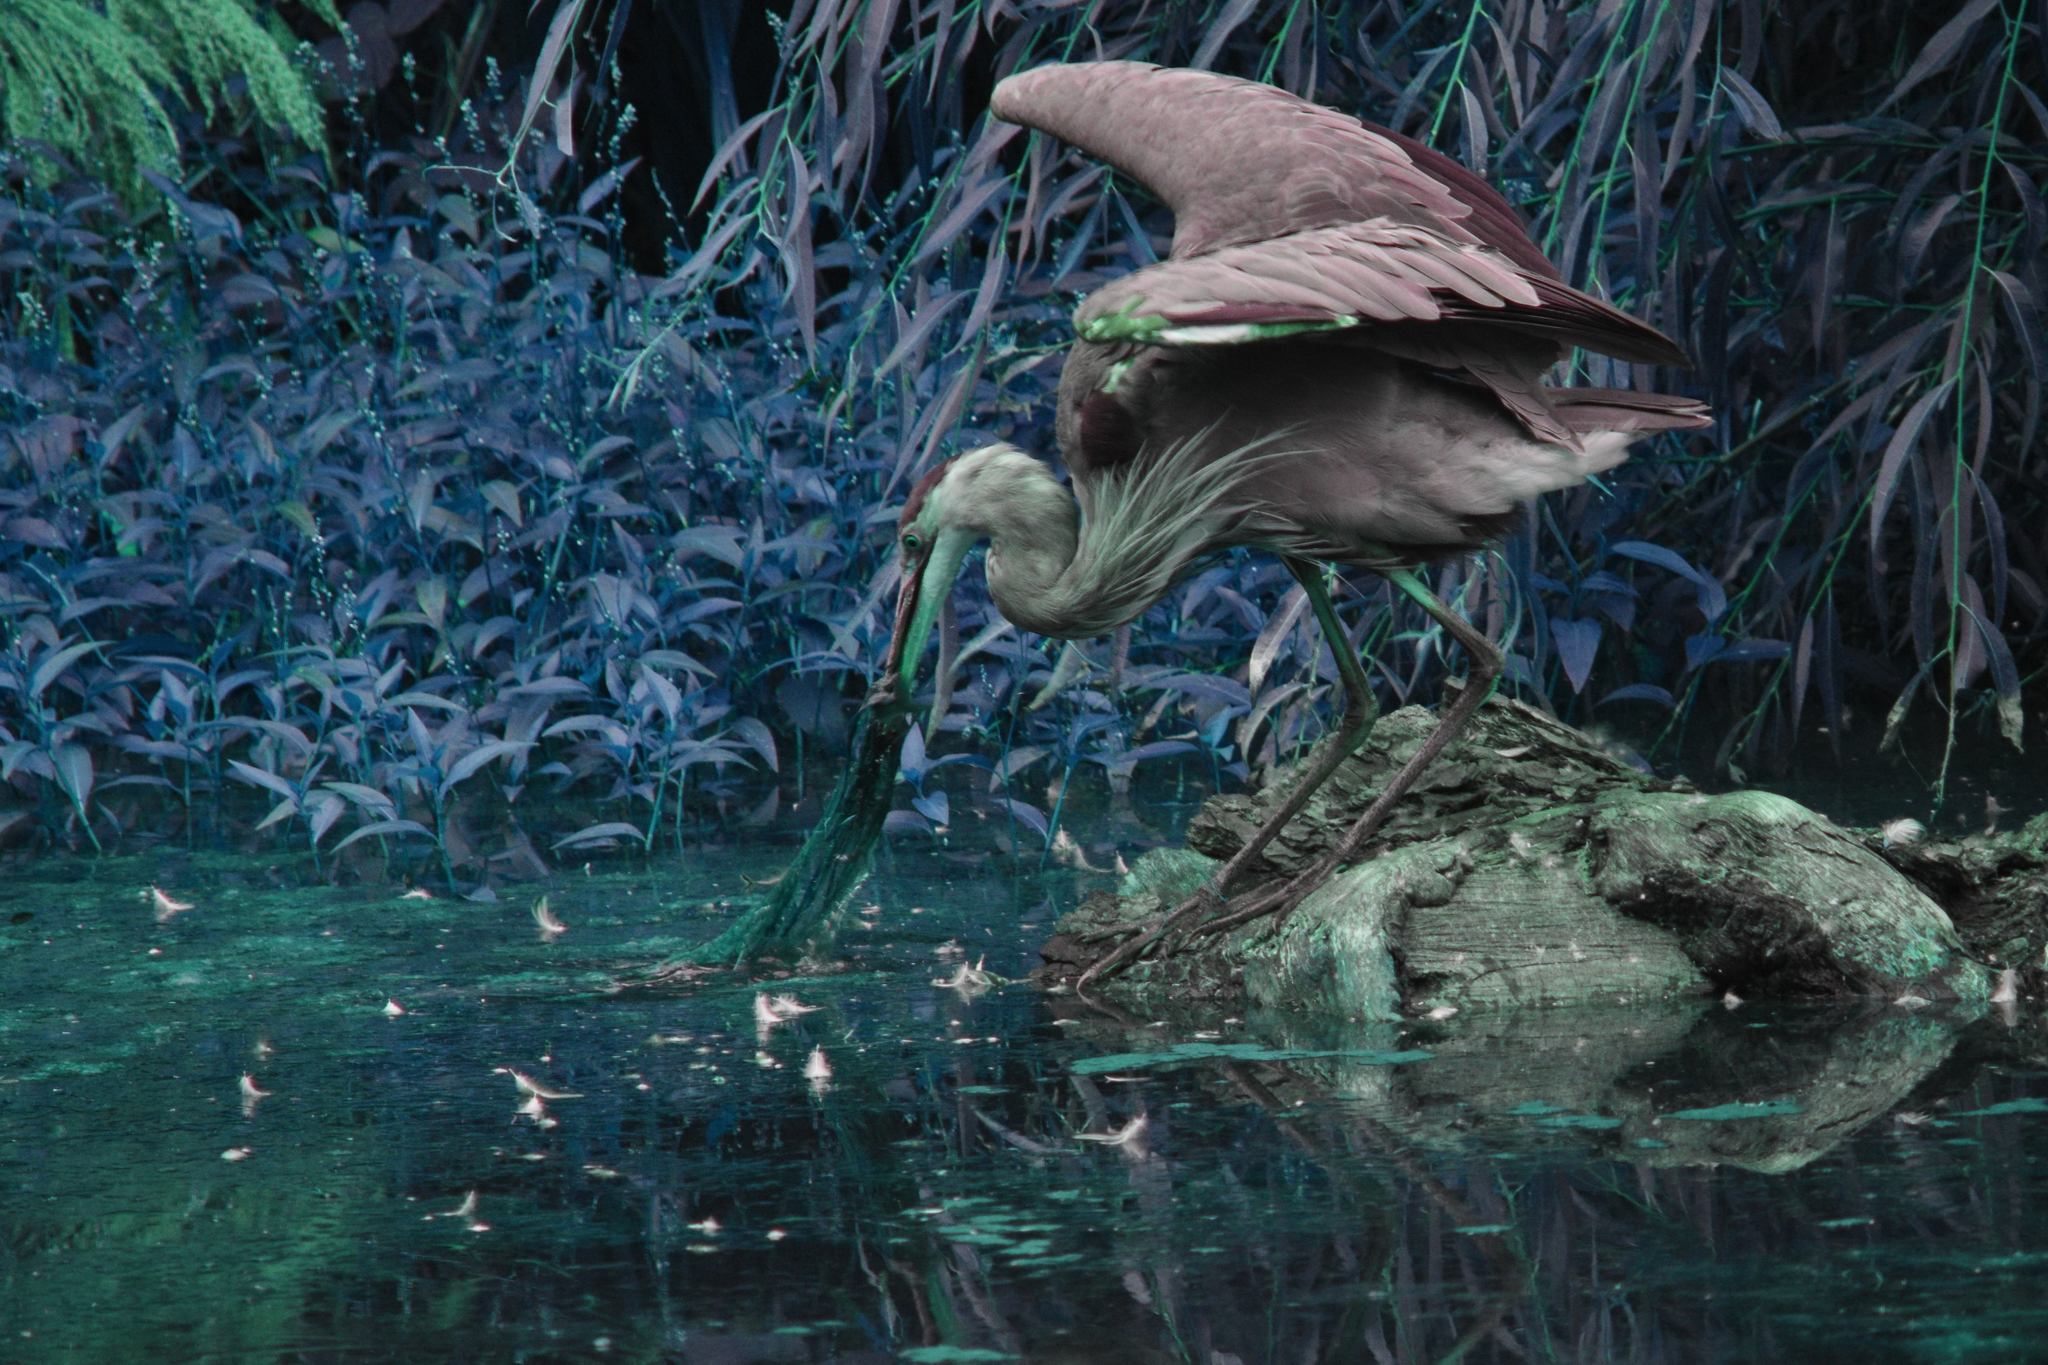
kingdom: Animalia
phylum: Chordata
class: Aves
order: Pelecaniformes
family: Ardeidae
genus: Ardea
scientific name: Ardea herodias
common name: Great blue heron
